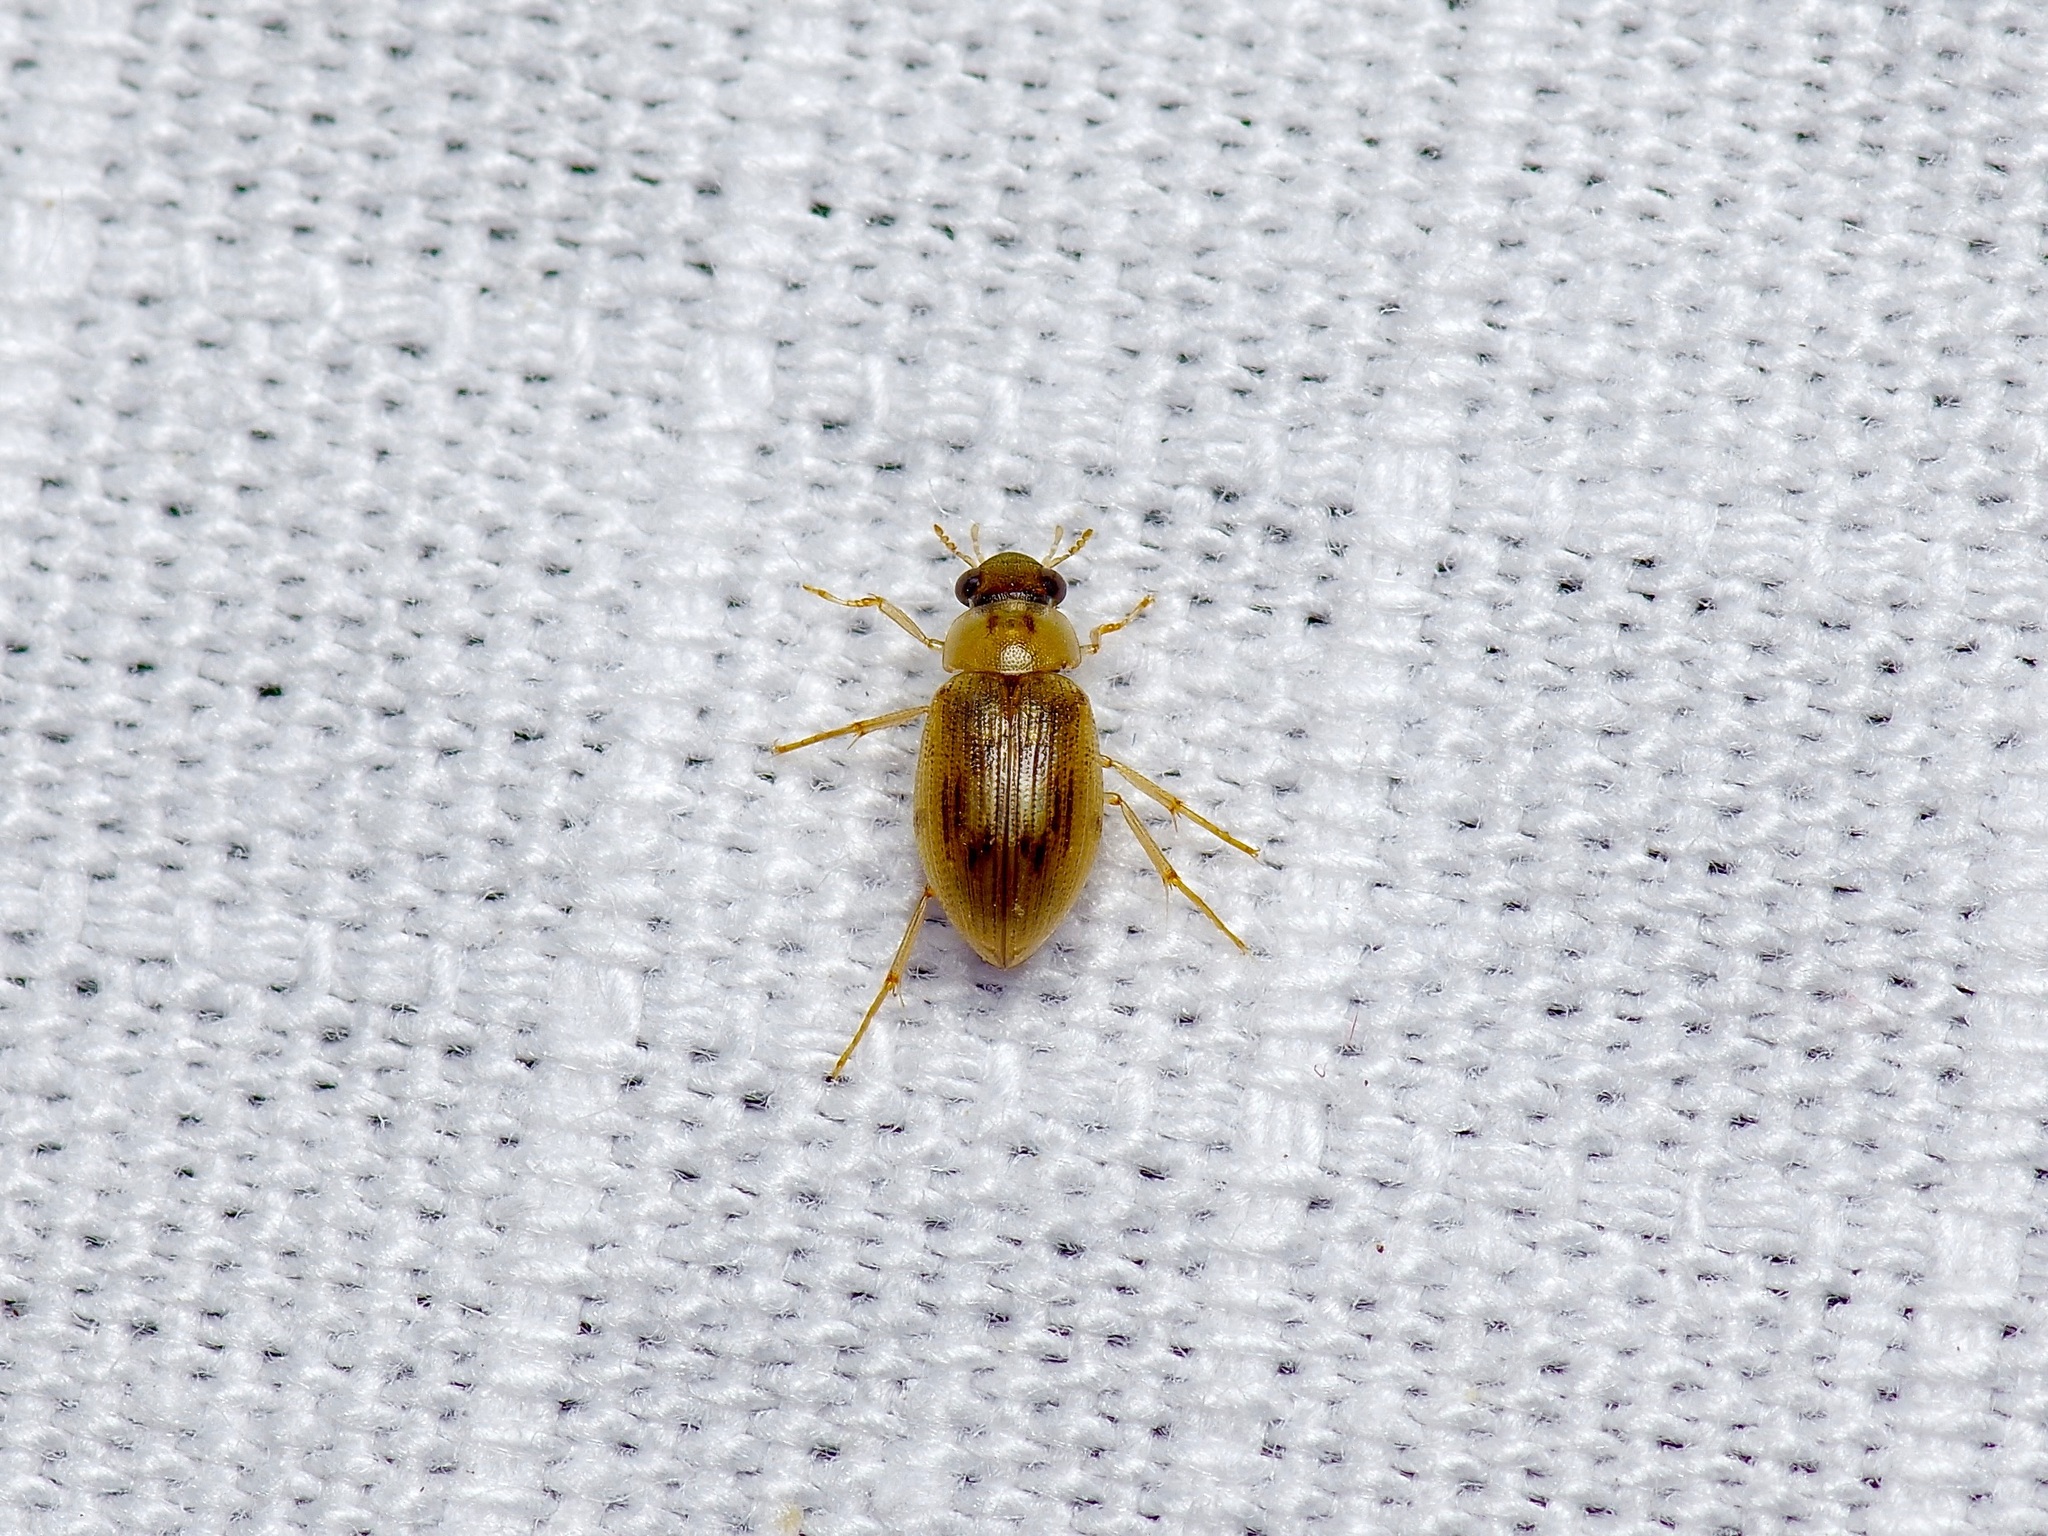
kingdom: Animalia
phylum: Arthropoda
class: Insecta
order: Coleoptera
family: Hydrophilidae
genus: Berosus
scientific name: Berosus
